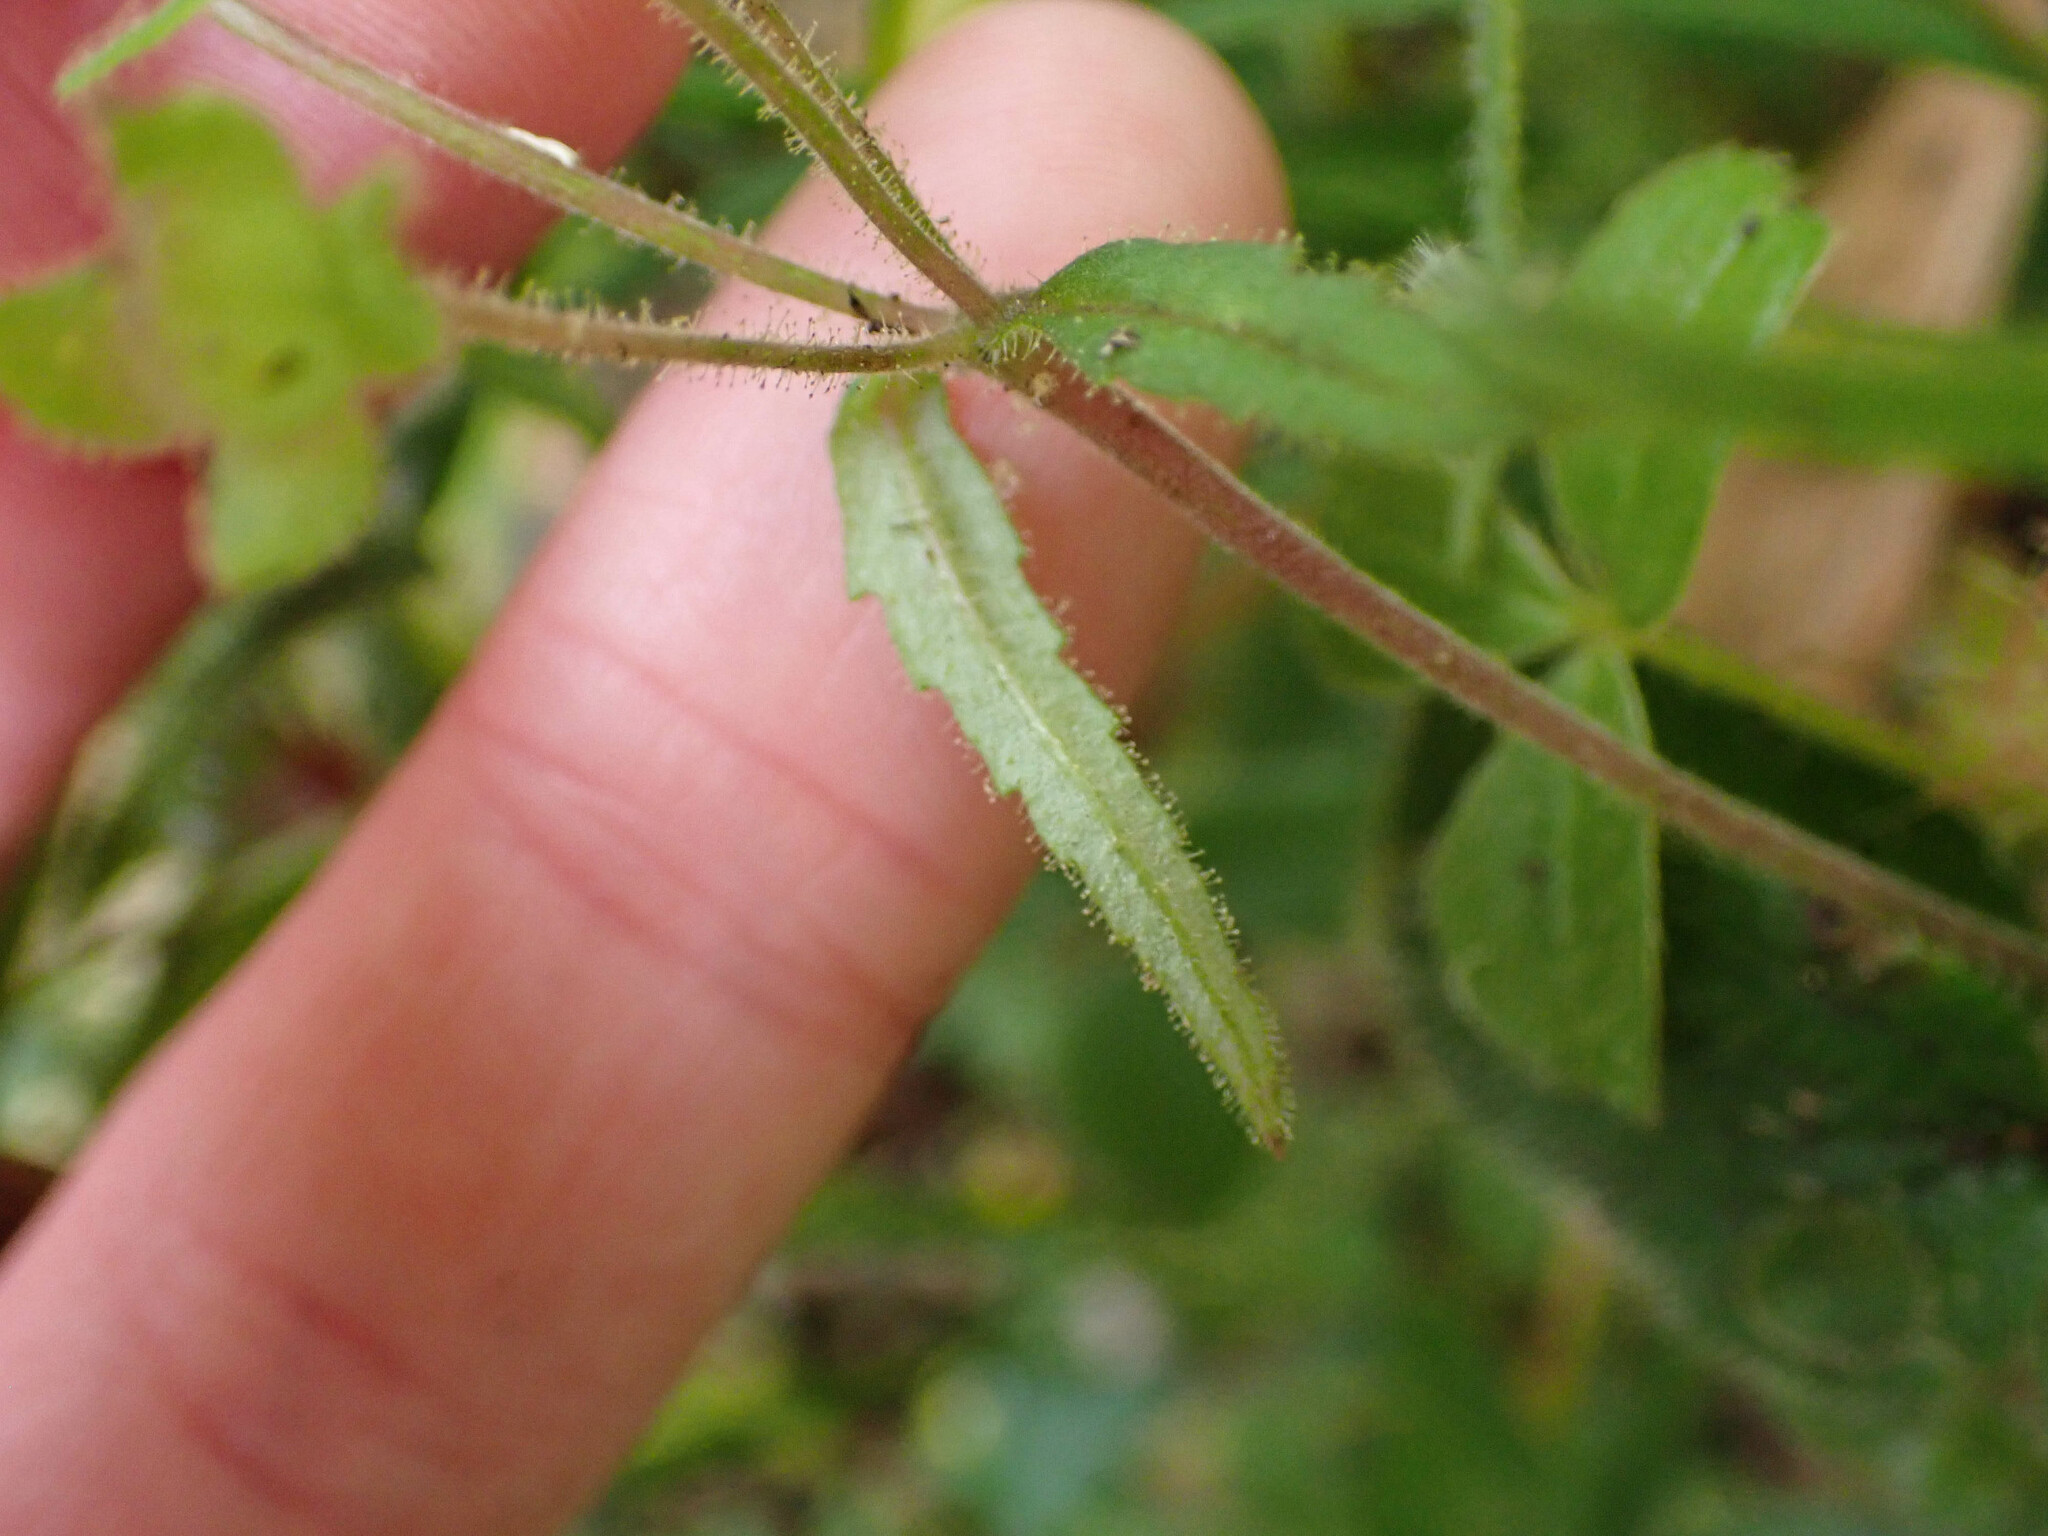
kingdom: Plantae
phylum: Tracheophyta
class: Magnoliopsida
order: Lamiales
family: Calceolariaceae
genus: Calceolaria
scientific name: Calceolaria mexicana
